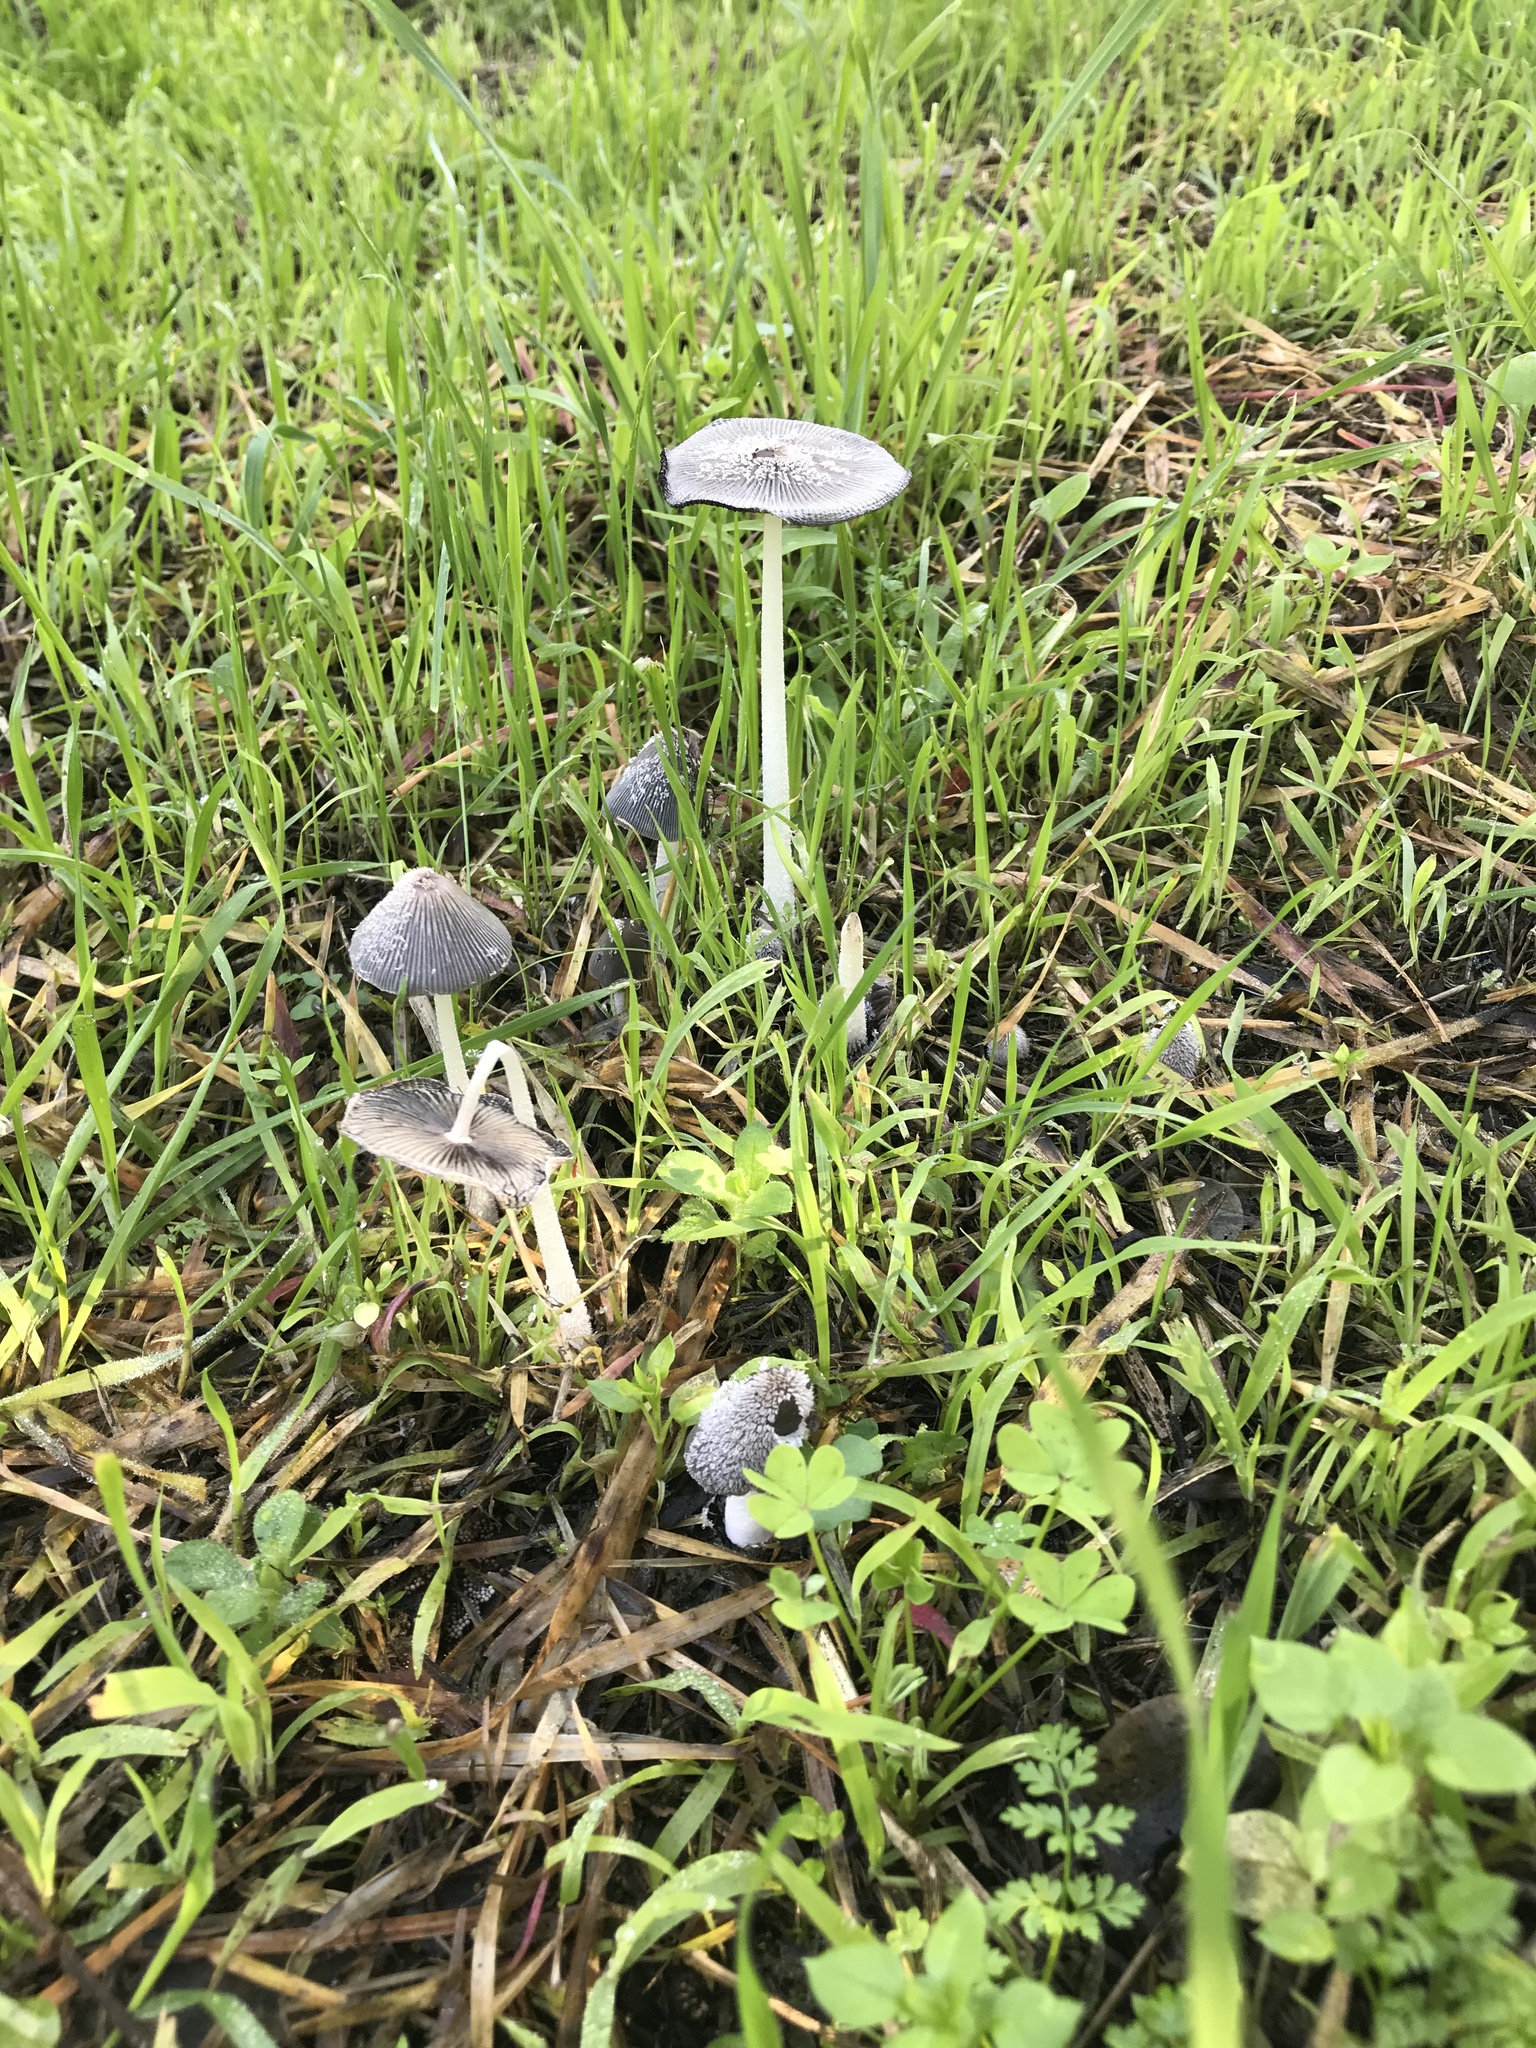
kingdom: Fungi
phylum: Basidiomycota
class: Agaricomycetes
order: Agaricales
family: Psathyrellaceae
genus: Coprinopsis
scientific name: Coprinopsis lagopus
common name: Hare'sfoot inkcap
